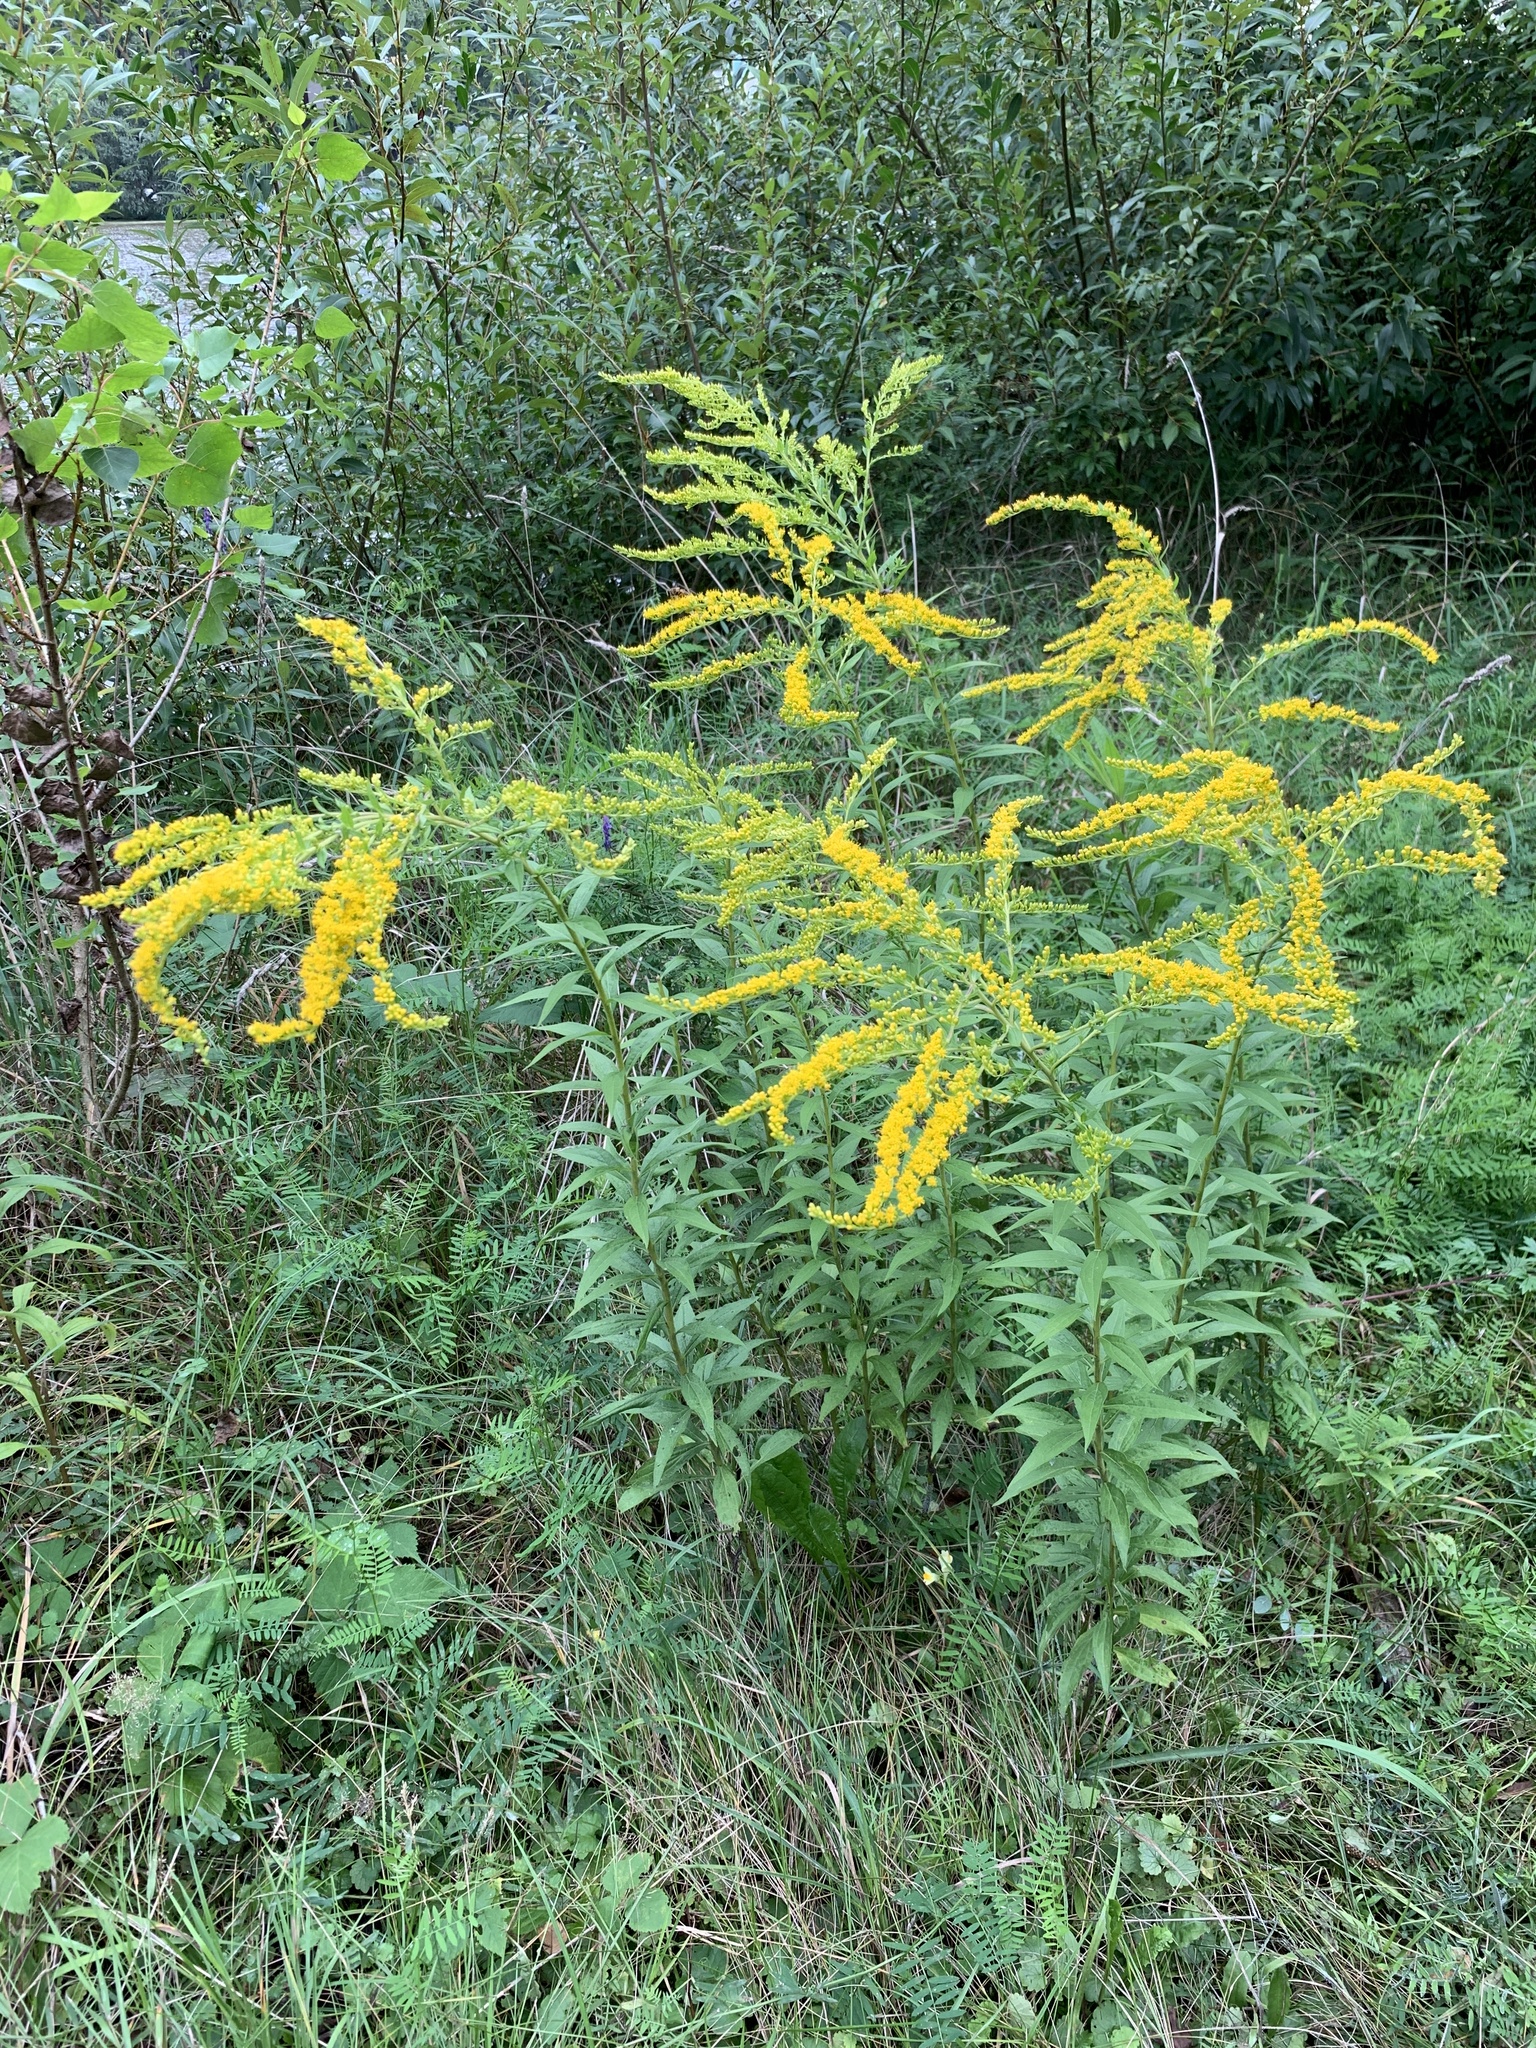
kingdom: Plantae
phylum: Tracheophyta
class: Magnoliopsida
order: Asterales
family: Asteraceae
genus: Solidago
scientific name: Solidago canadensis
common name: Canada goldenrod
